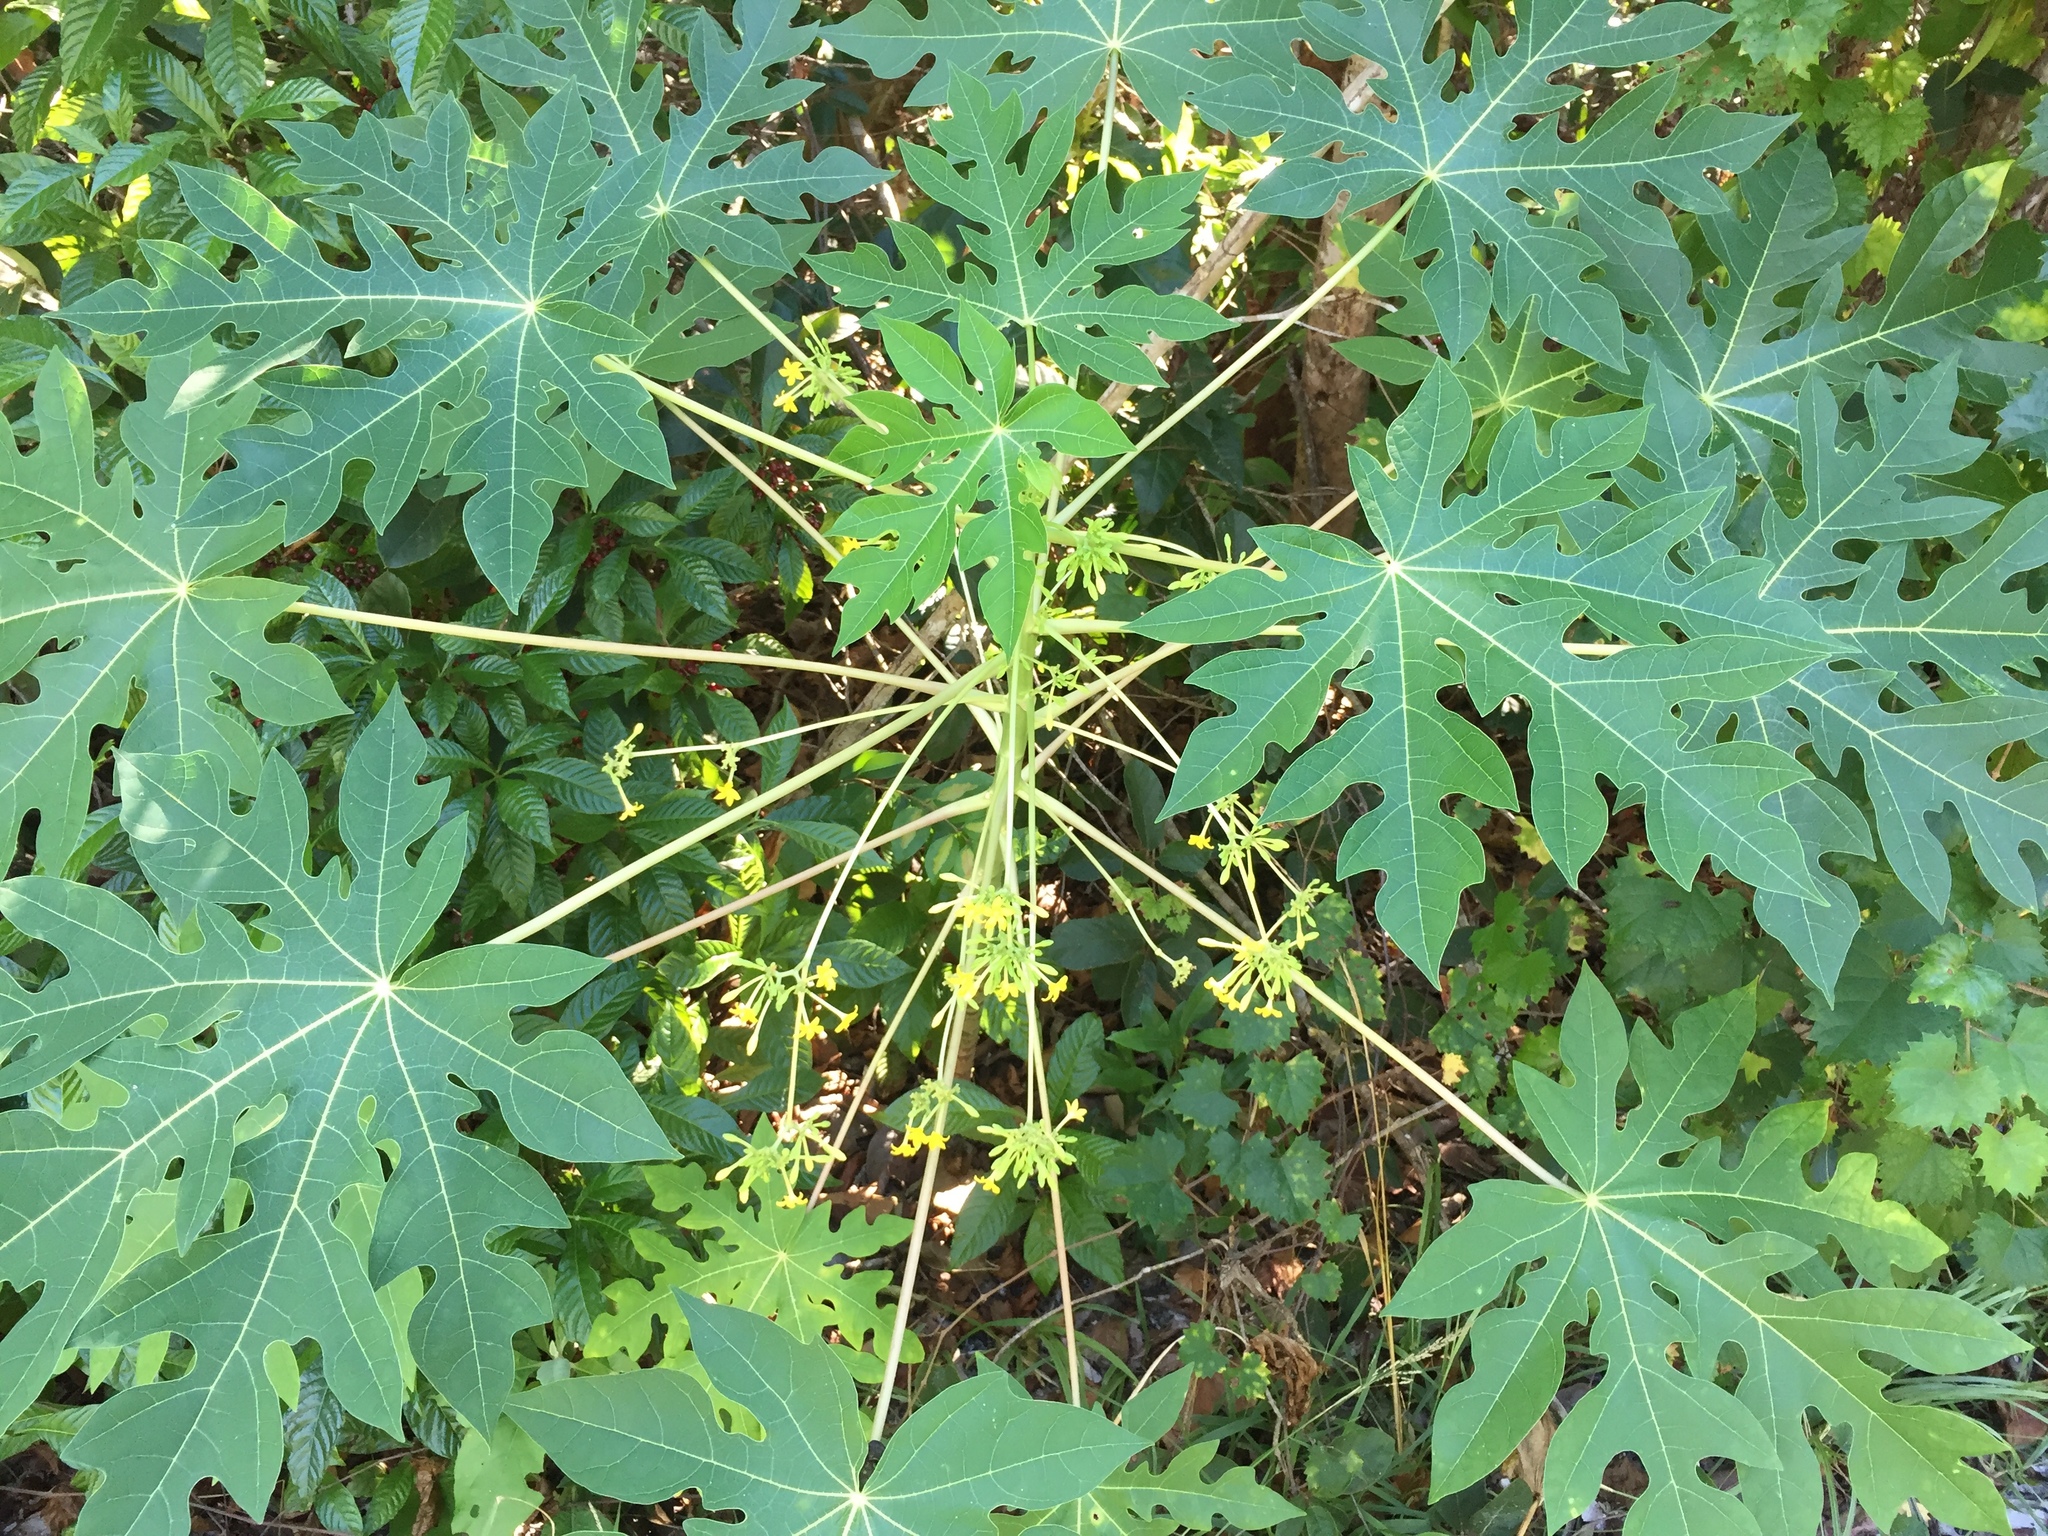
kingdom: Plantae
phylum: Tracheophyta
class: Magnoliopsida
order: Brassicales
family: Caricaceae
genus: Carica
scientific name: Carica papaya
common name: Papaya
